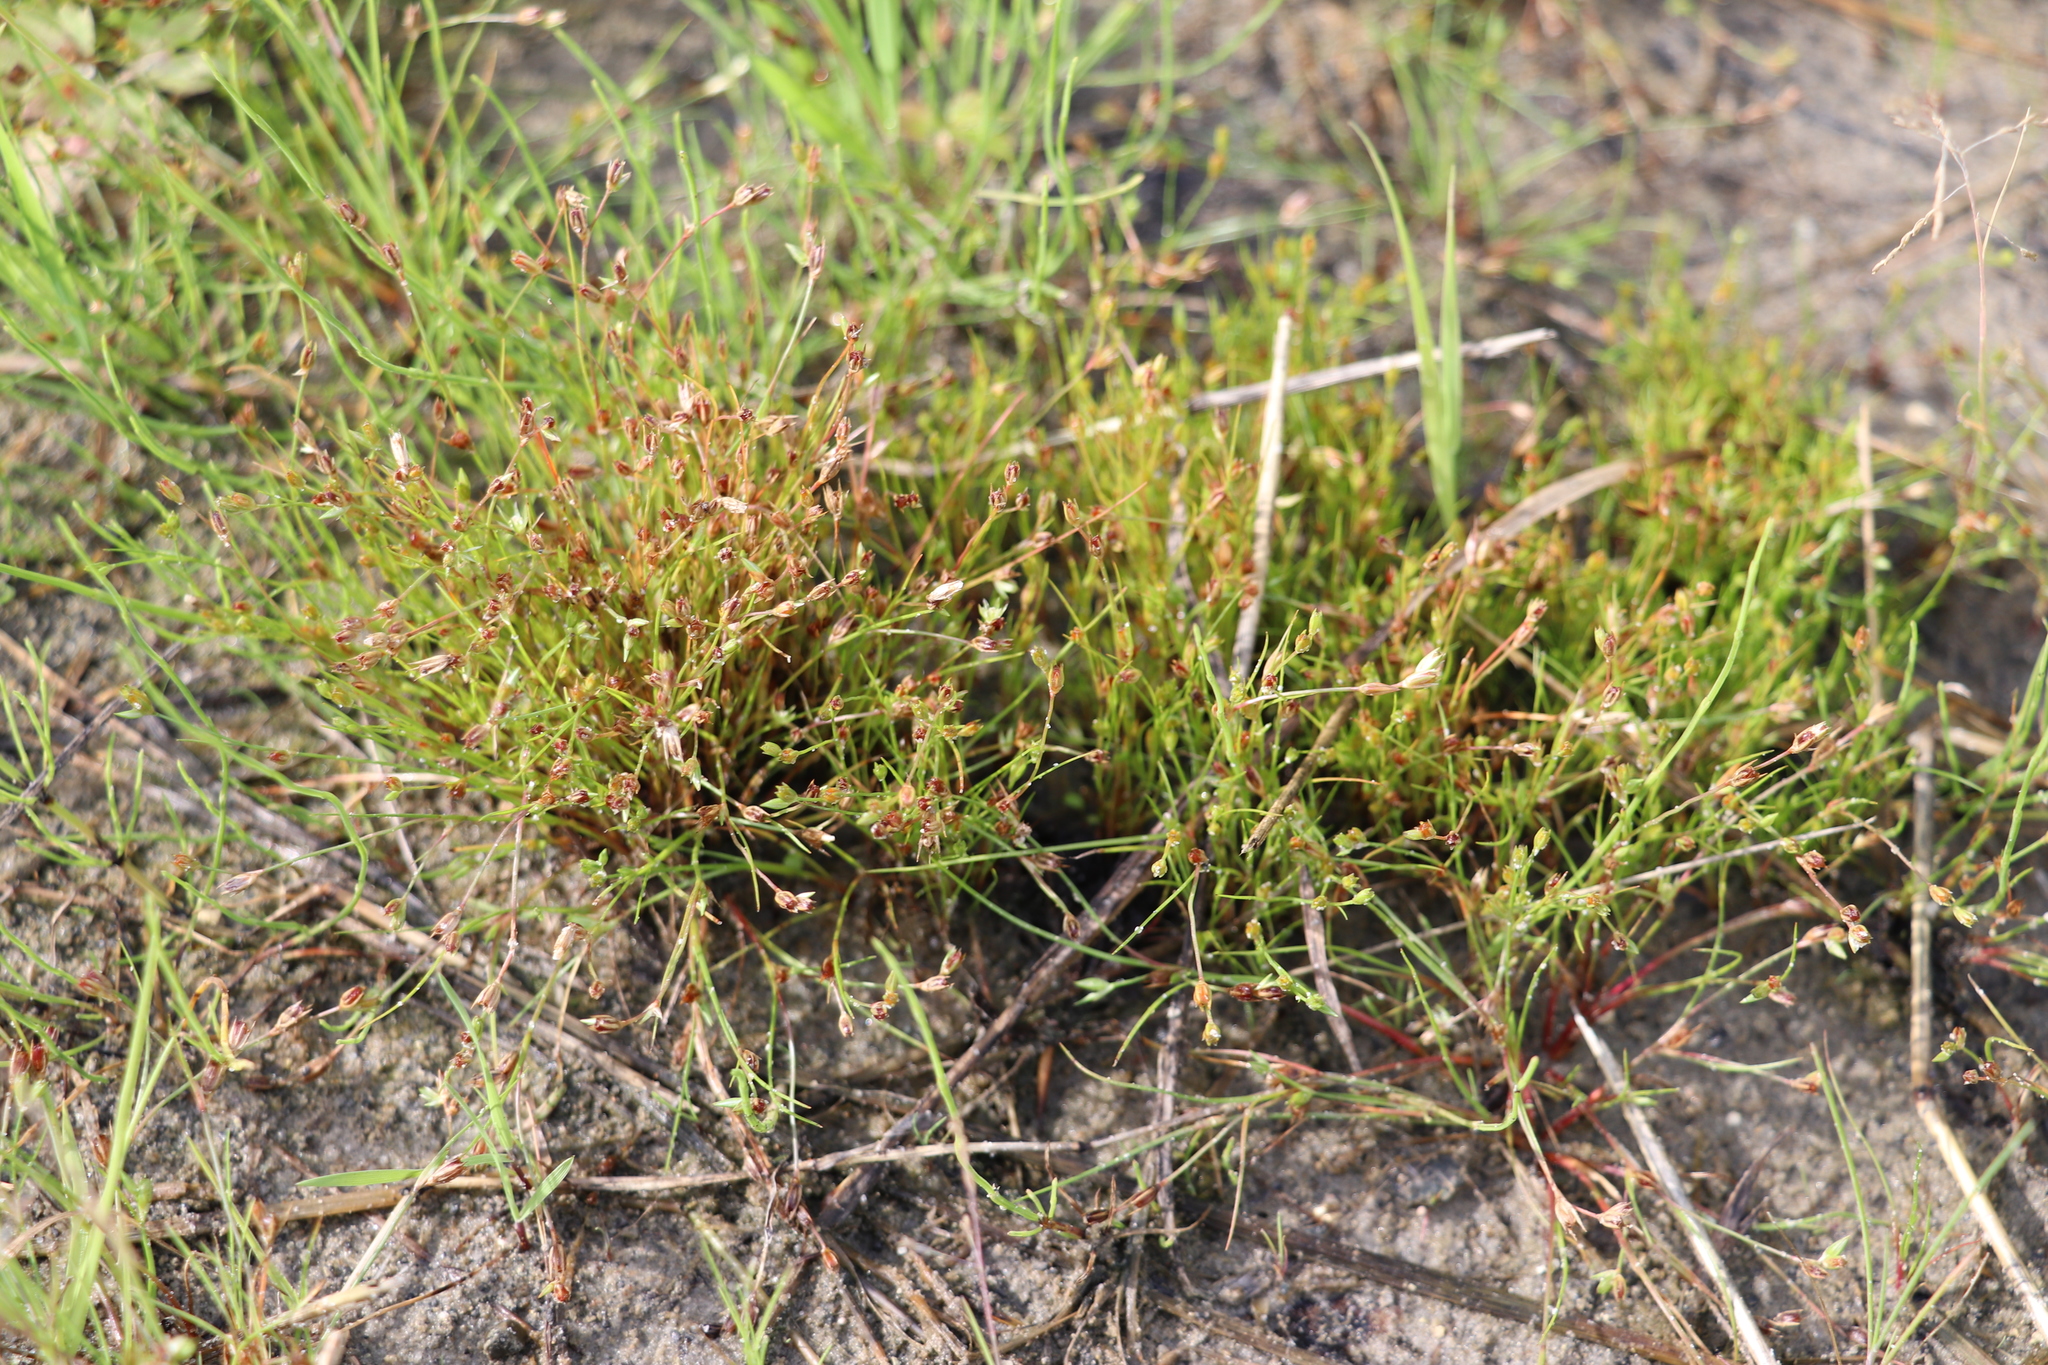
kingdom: Plantae
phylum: Tracheophyta
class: Liliopsida
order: Poales
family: Juncaceae
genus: Juncus
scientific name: Juncus bufonius
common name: Toad rush
